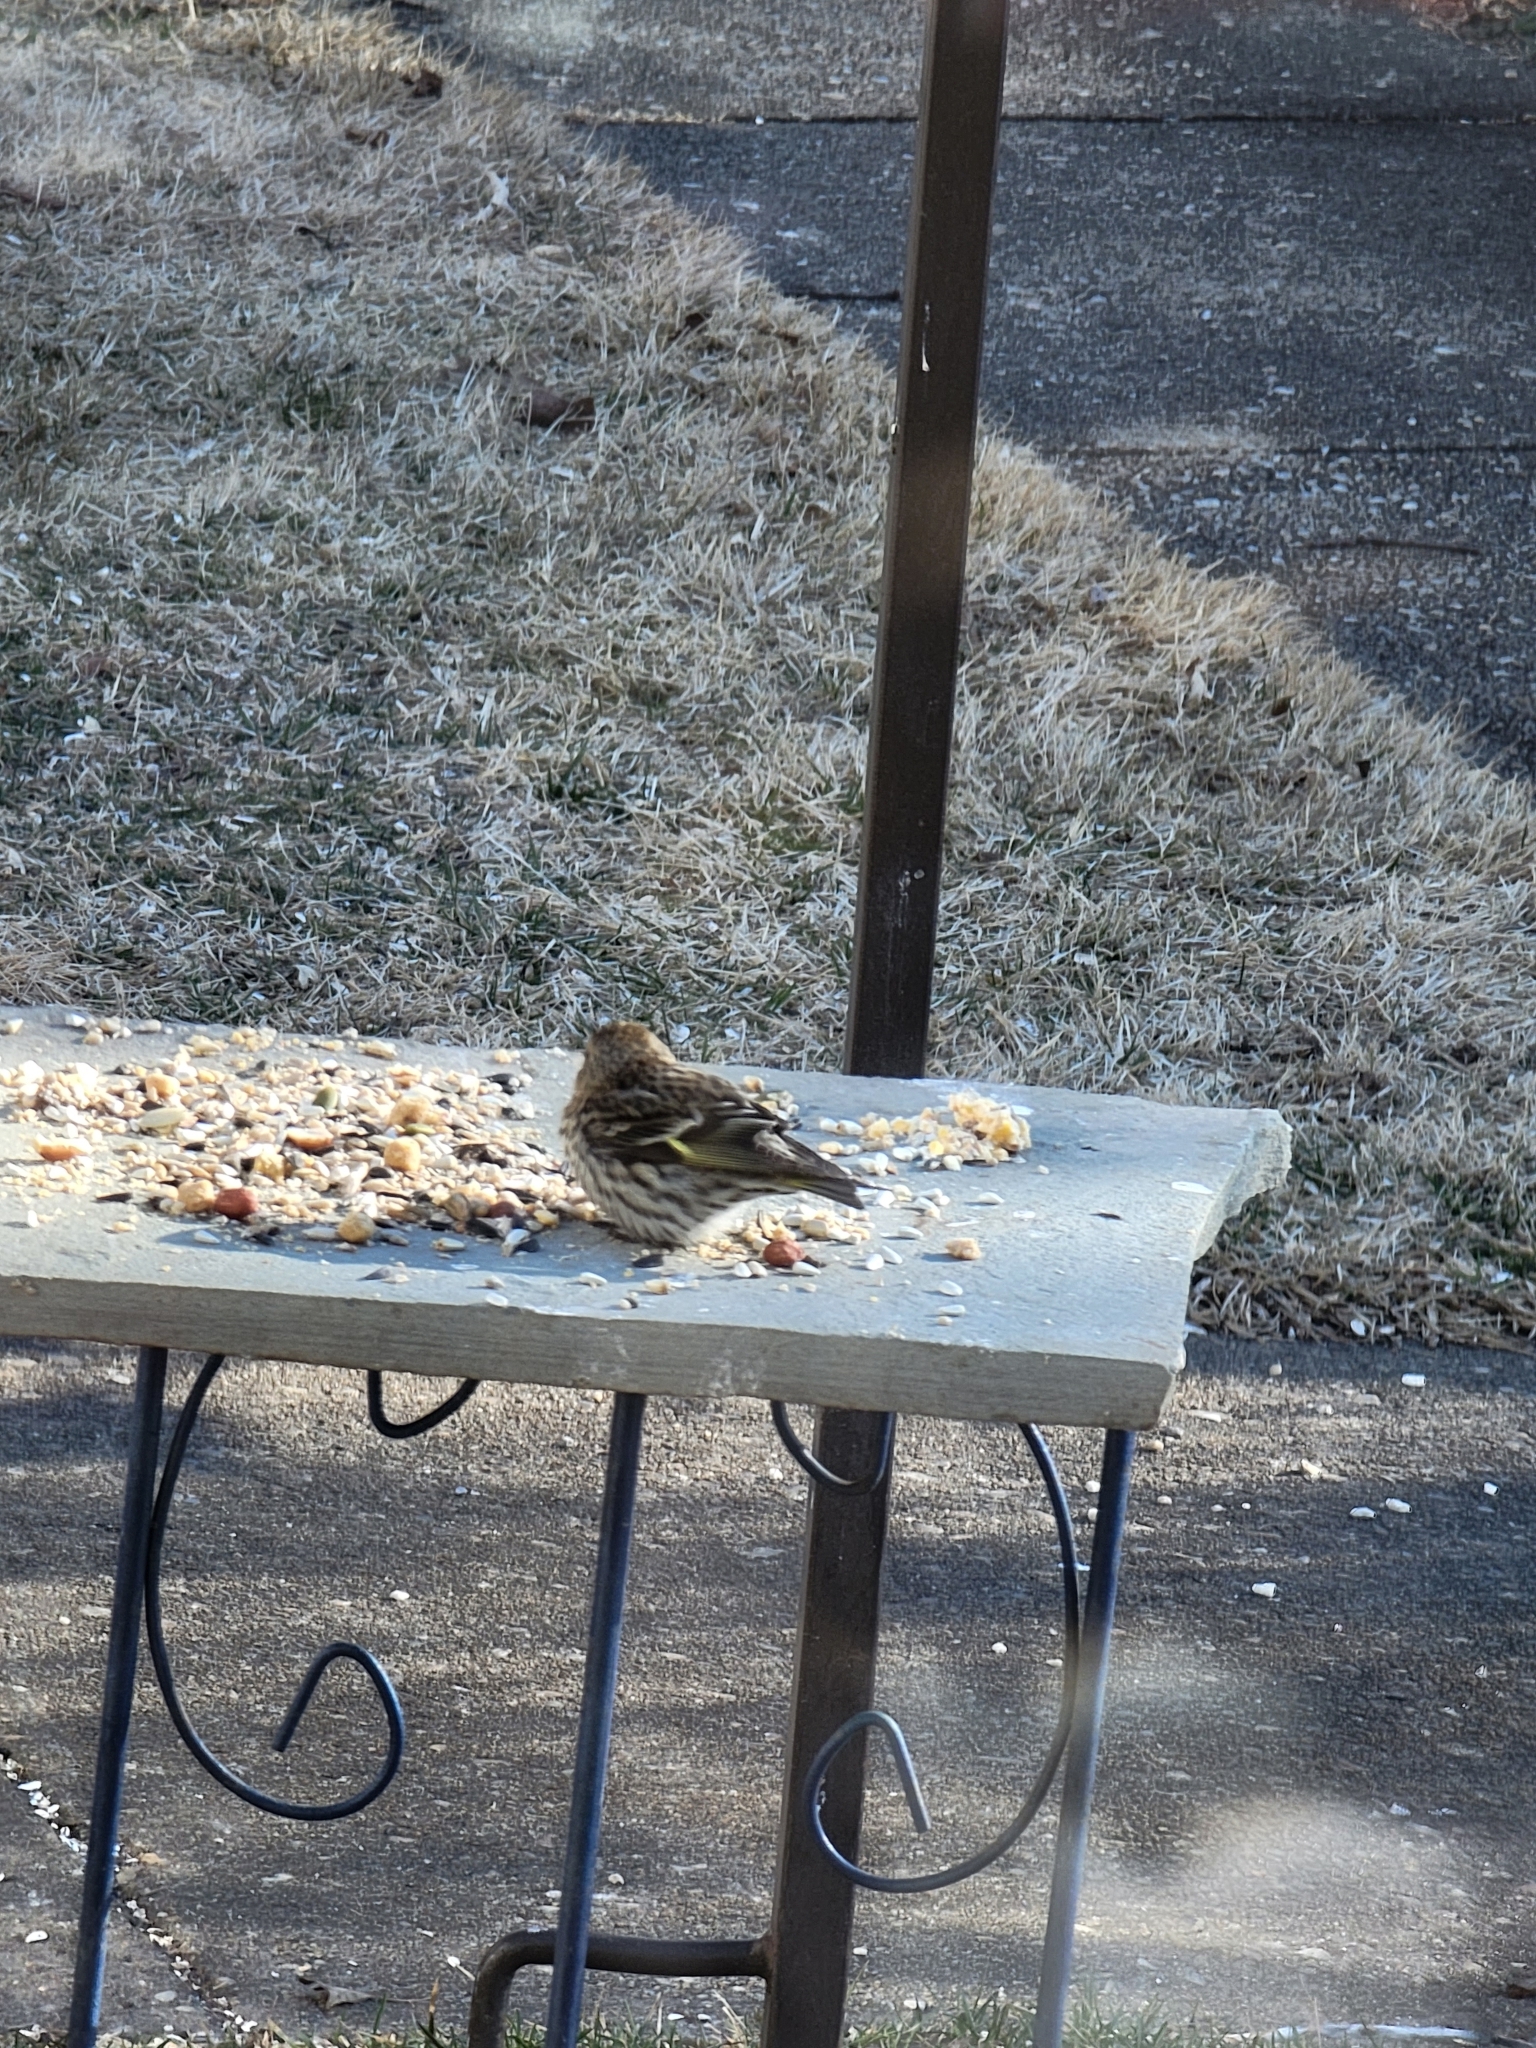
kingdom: Animalia
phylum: Chordata
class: Aves
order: Passeriformes
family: Fringillidae
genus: Spinus
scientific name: Spinus pinus
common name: Pine siskin
